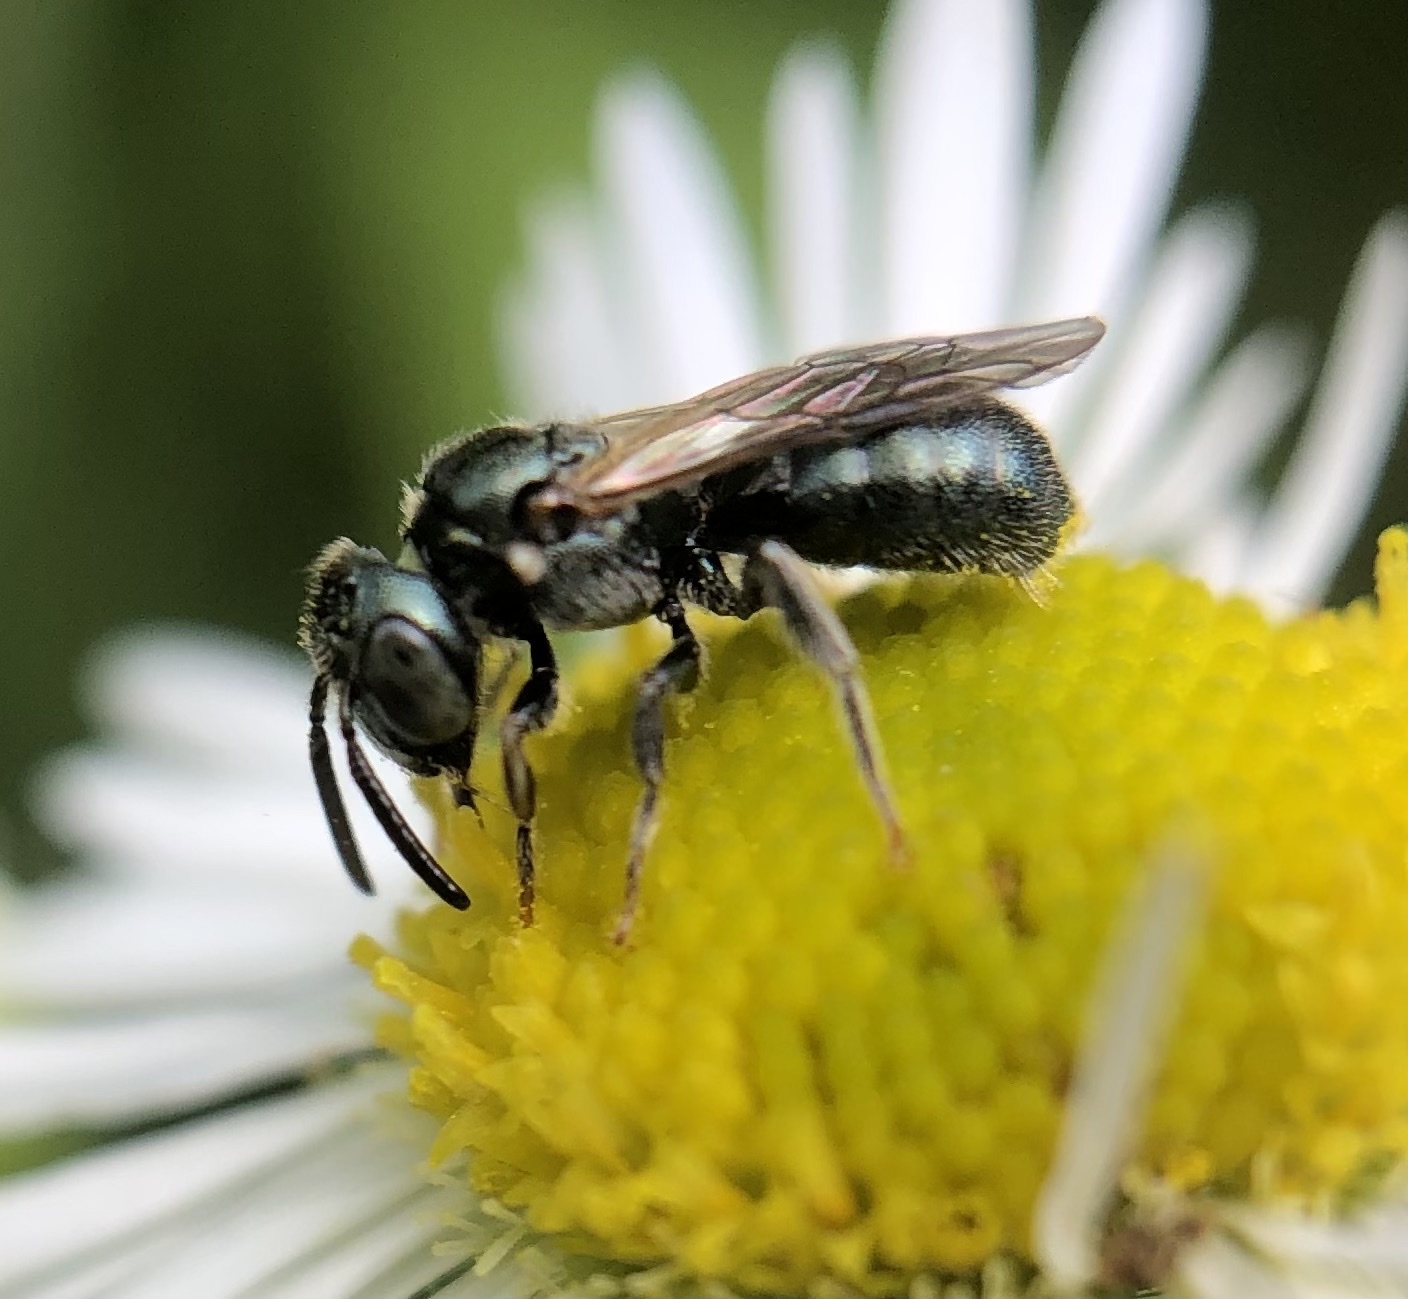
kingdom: Animalia
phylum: Arthropoda
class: Insecta
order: Hymenoptera
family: Apidae
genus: Ceratina
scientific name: Ceratina strenua
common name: Nimble carpenter bee
